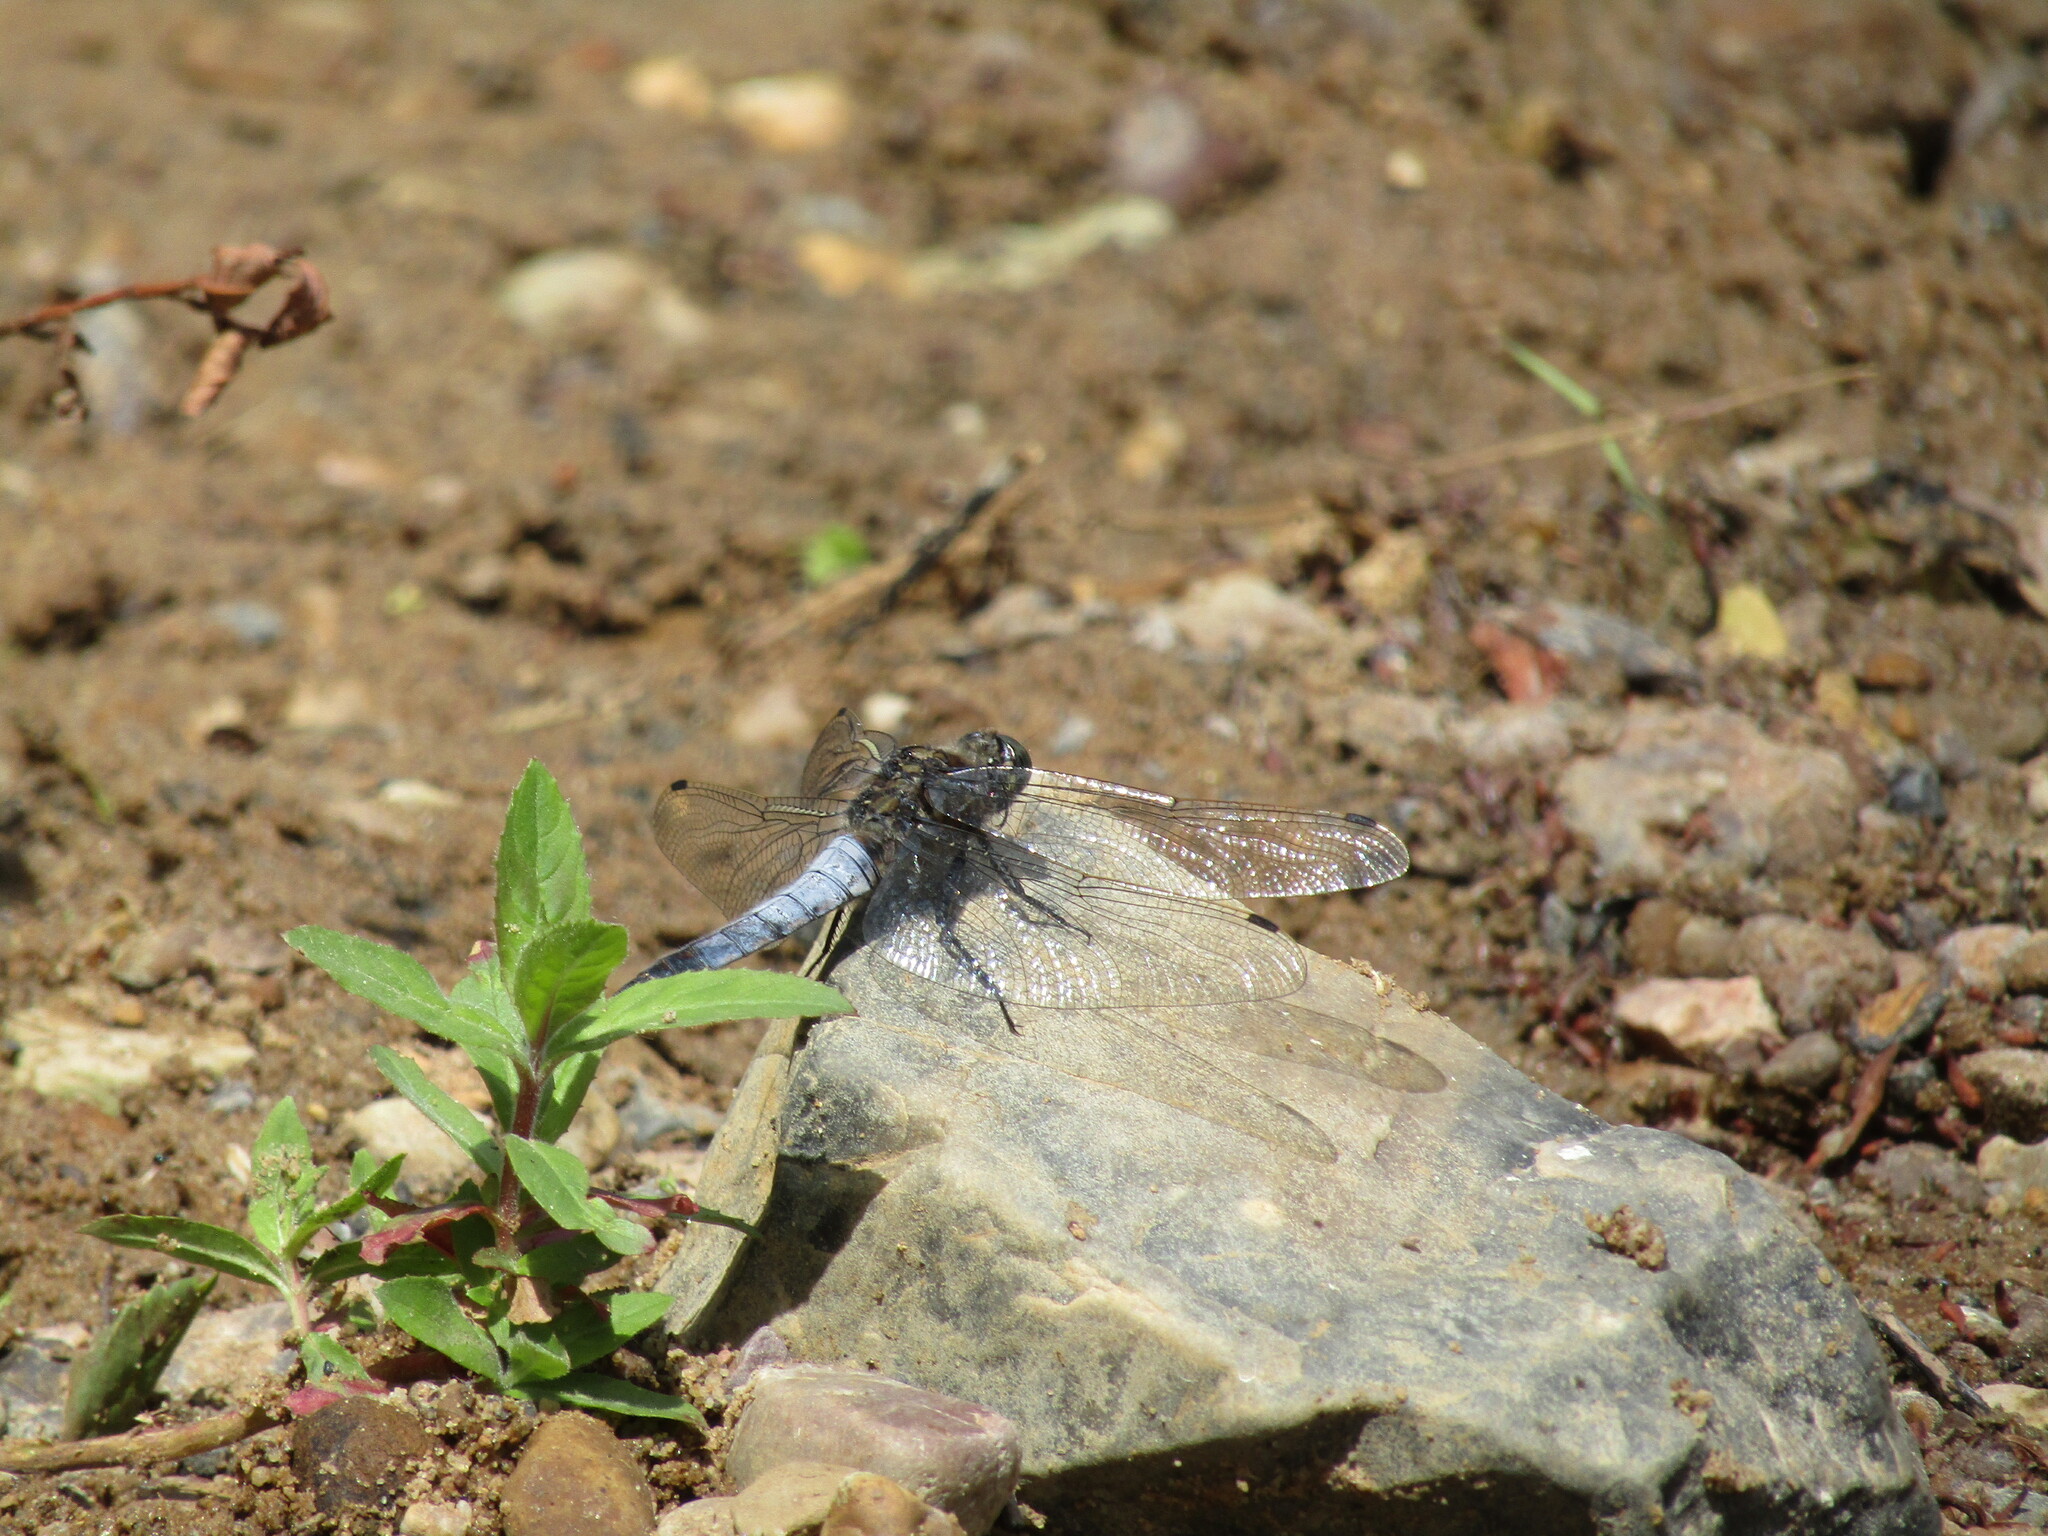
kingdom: Animalia
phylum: Arthropoda
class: Insecta
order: Odonata
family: Libellulidae
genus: Orthetrum
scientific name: Orthetrum cancellatum
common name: Black-tailed skimmer
